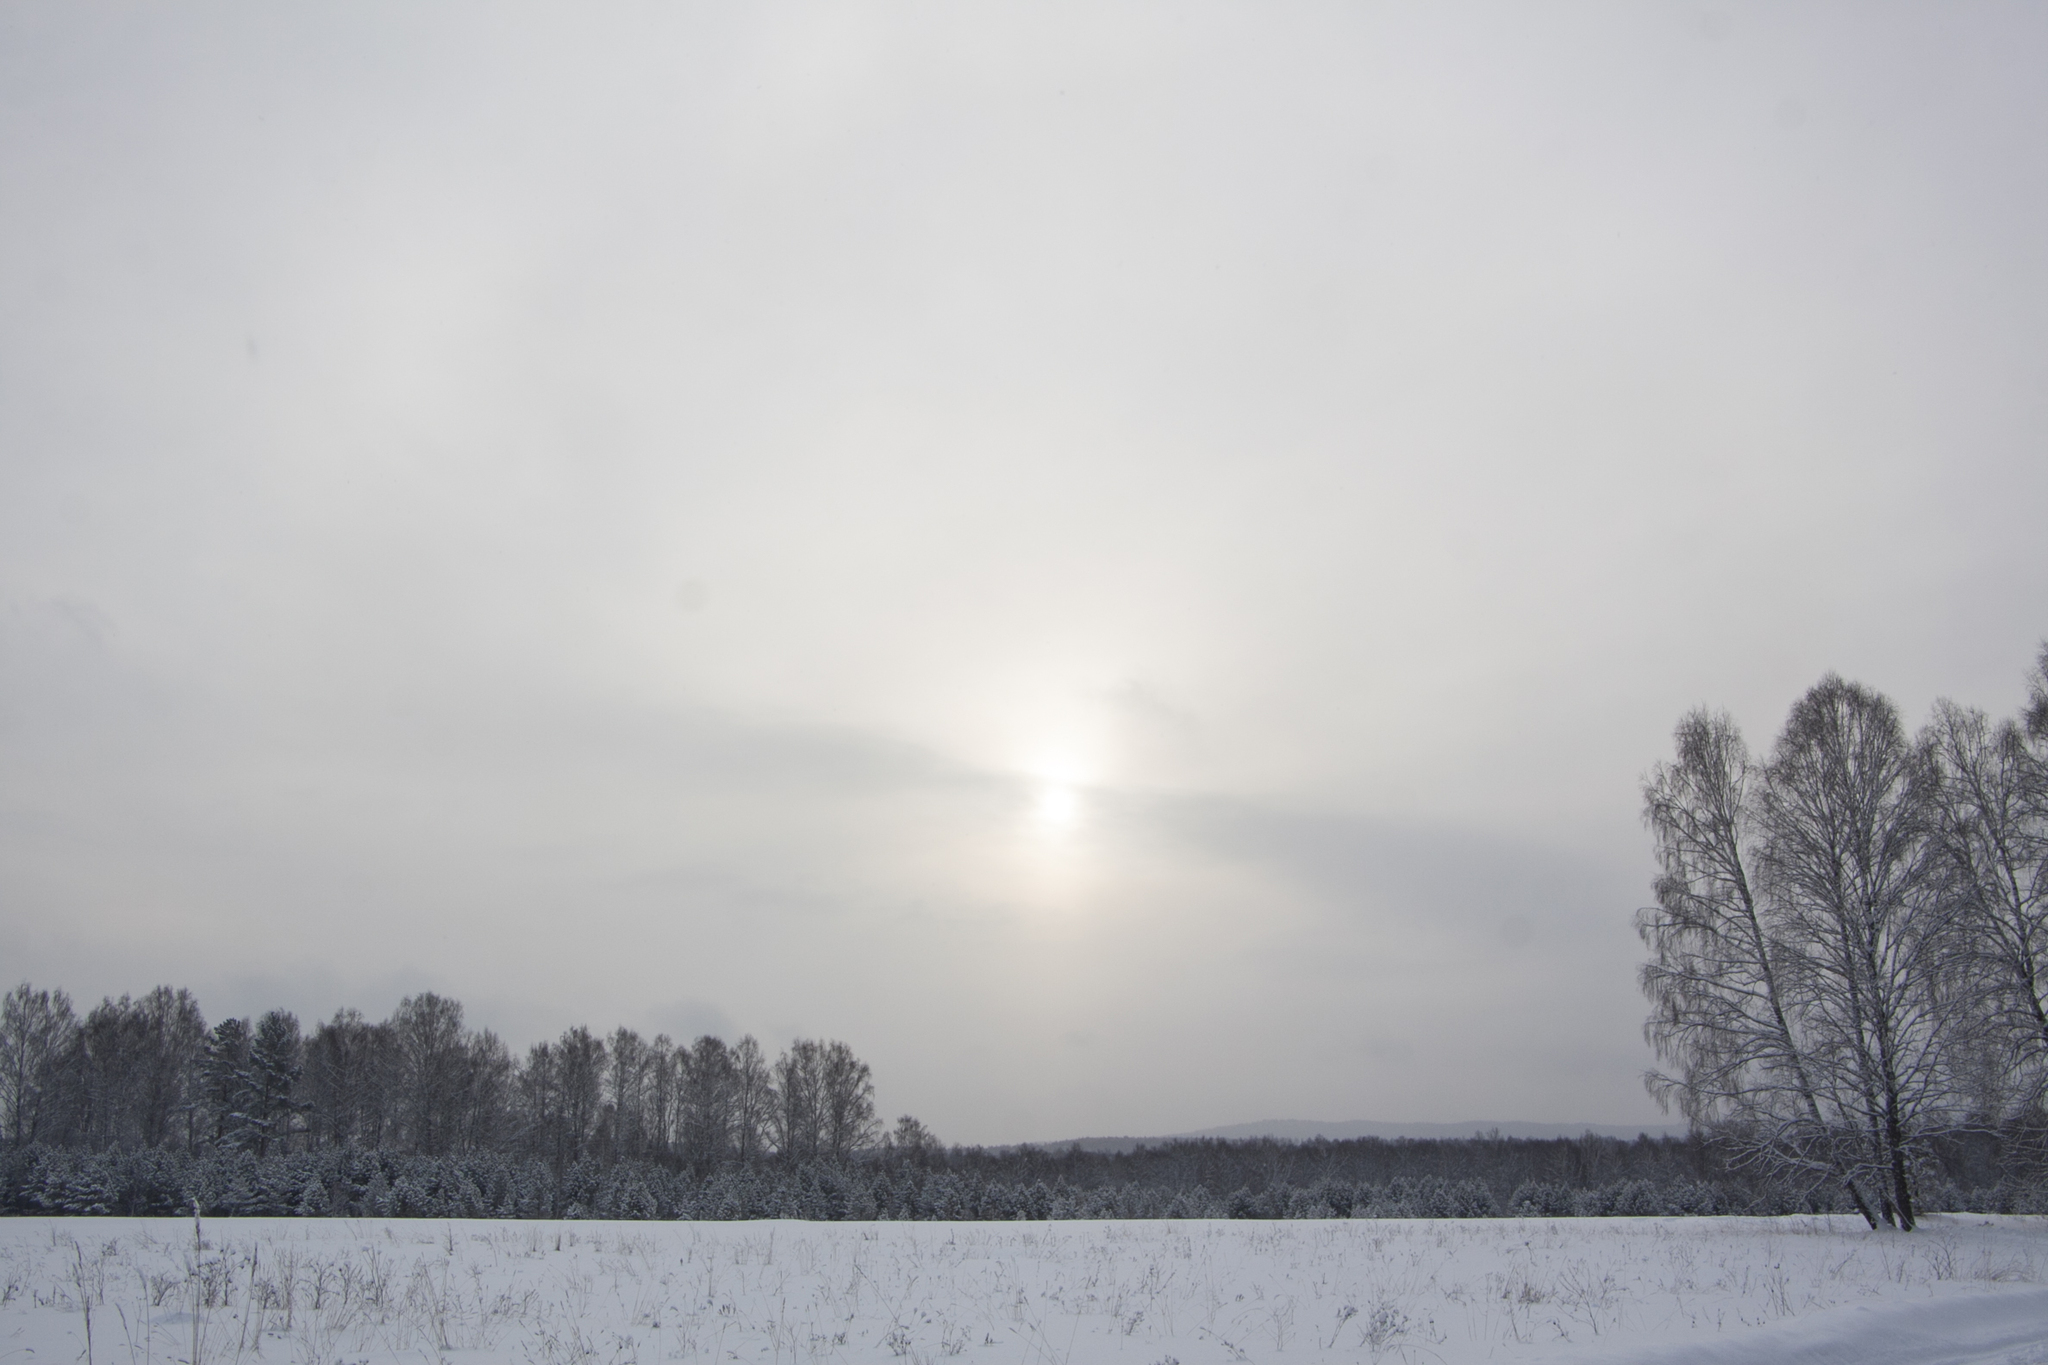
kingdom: Plantae
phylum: Tracheophyta
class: Magnoliopsida
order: Fagales
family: Betulaceae
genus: Betula
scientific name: Betula pendula
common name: Silver birch
